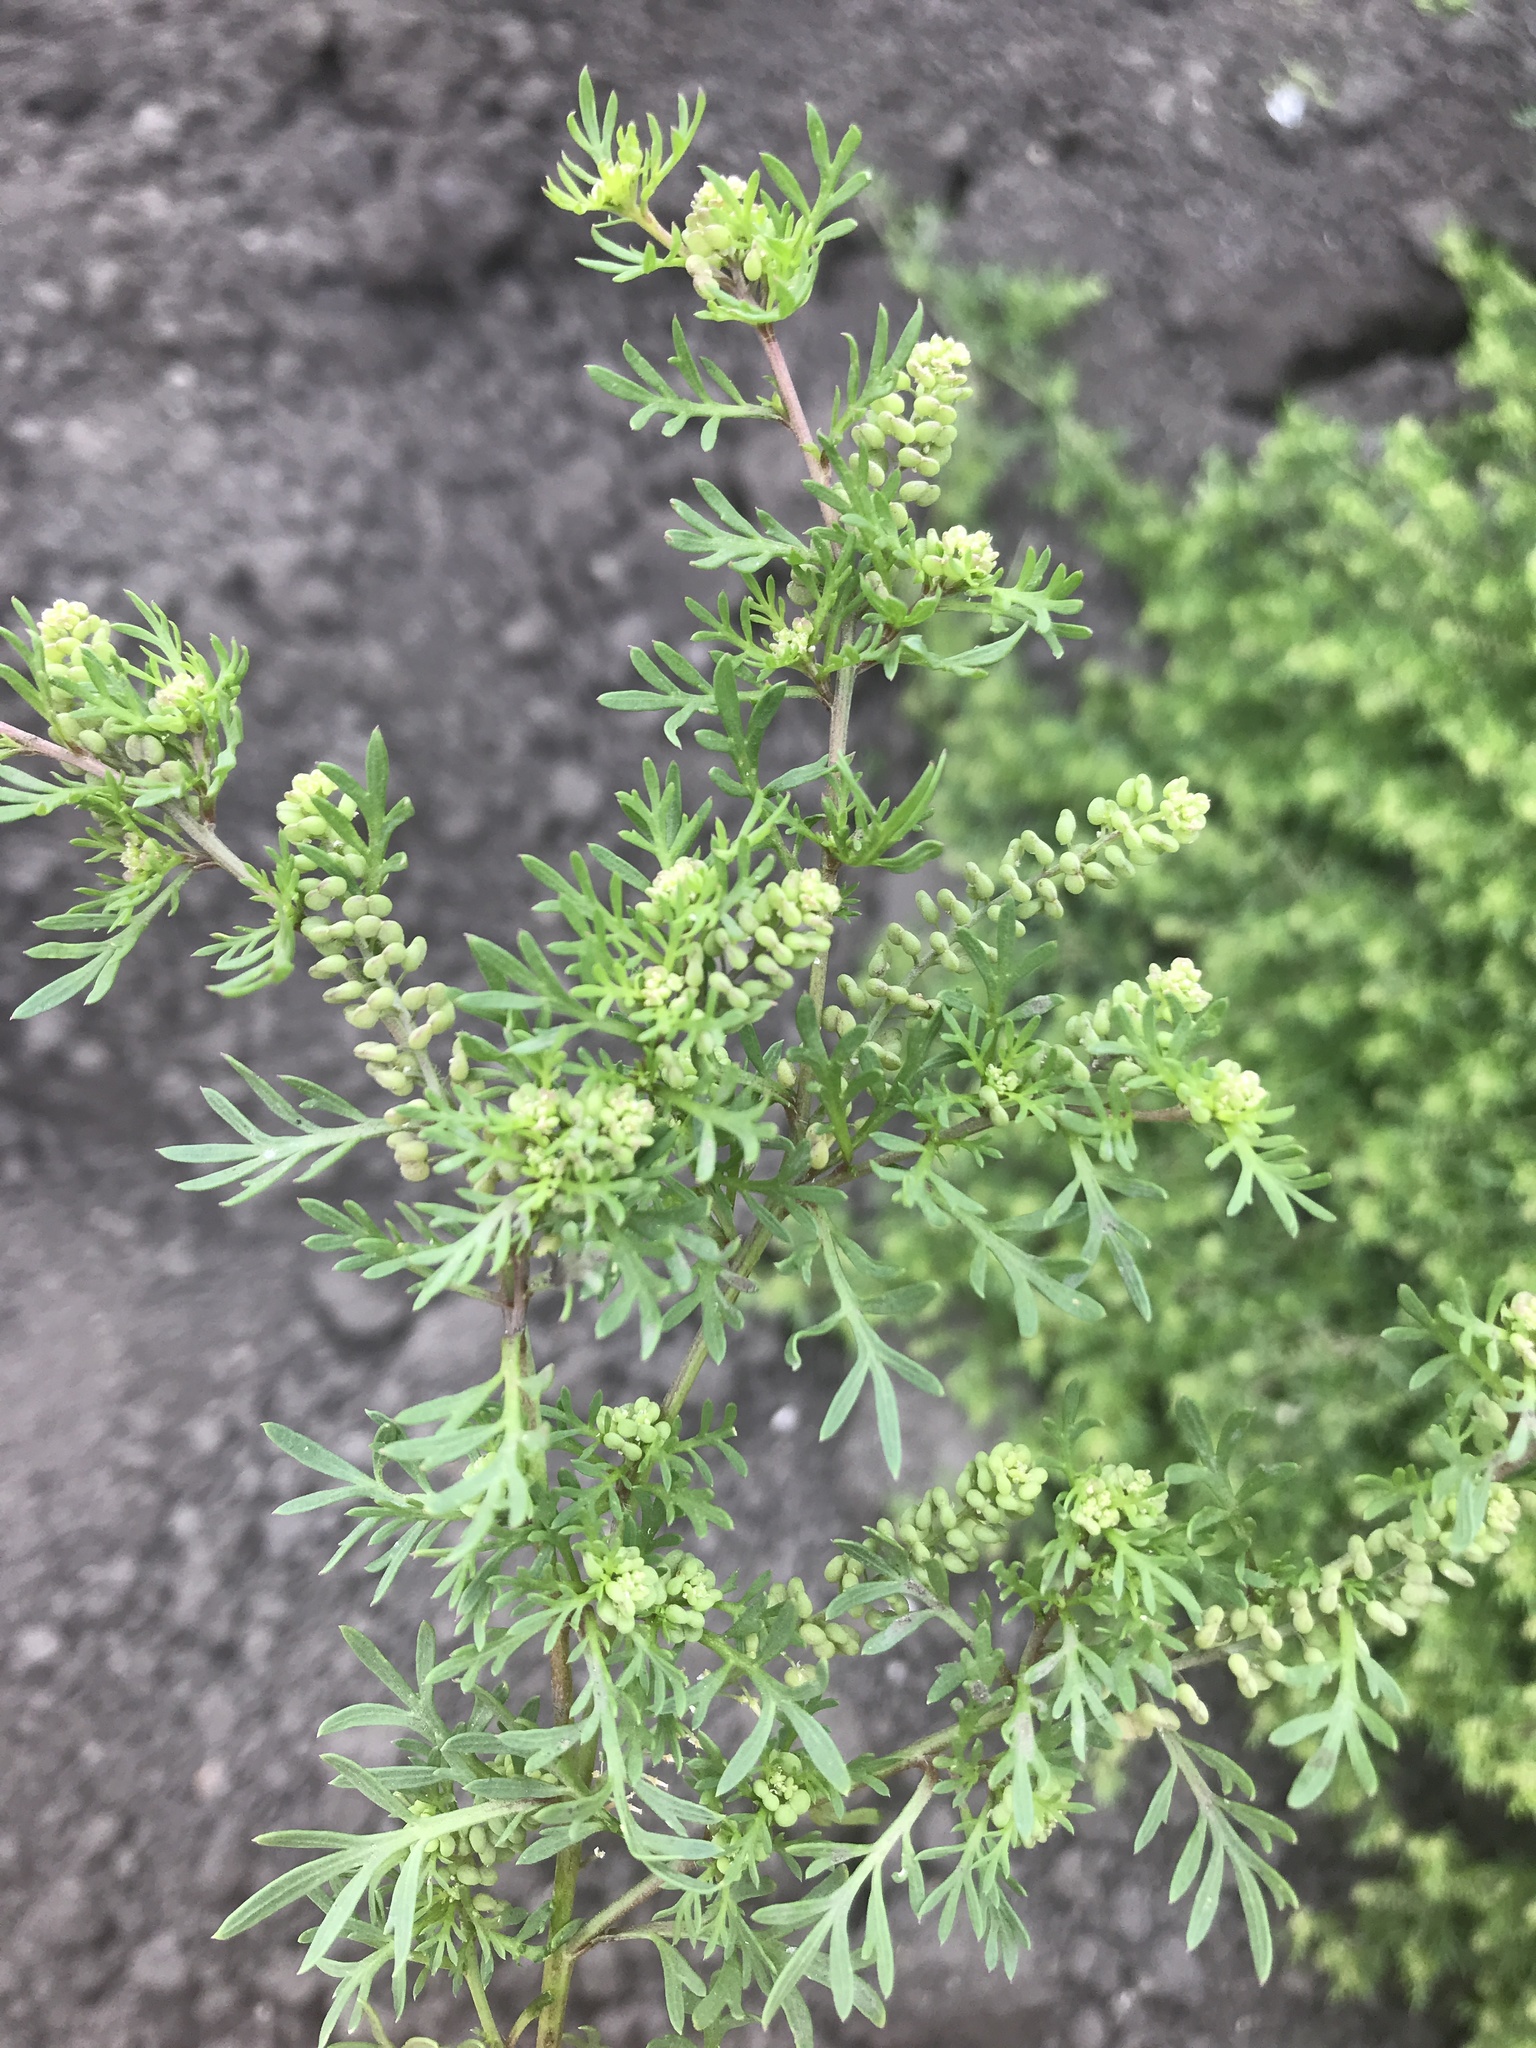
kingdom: Plantae
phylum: Tracheophyta
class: Magnoliopsida
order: Brassicales
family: Brassicaceae
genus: Lepidium
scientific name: Lepidium didymum
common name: Lesser swinecress
